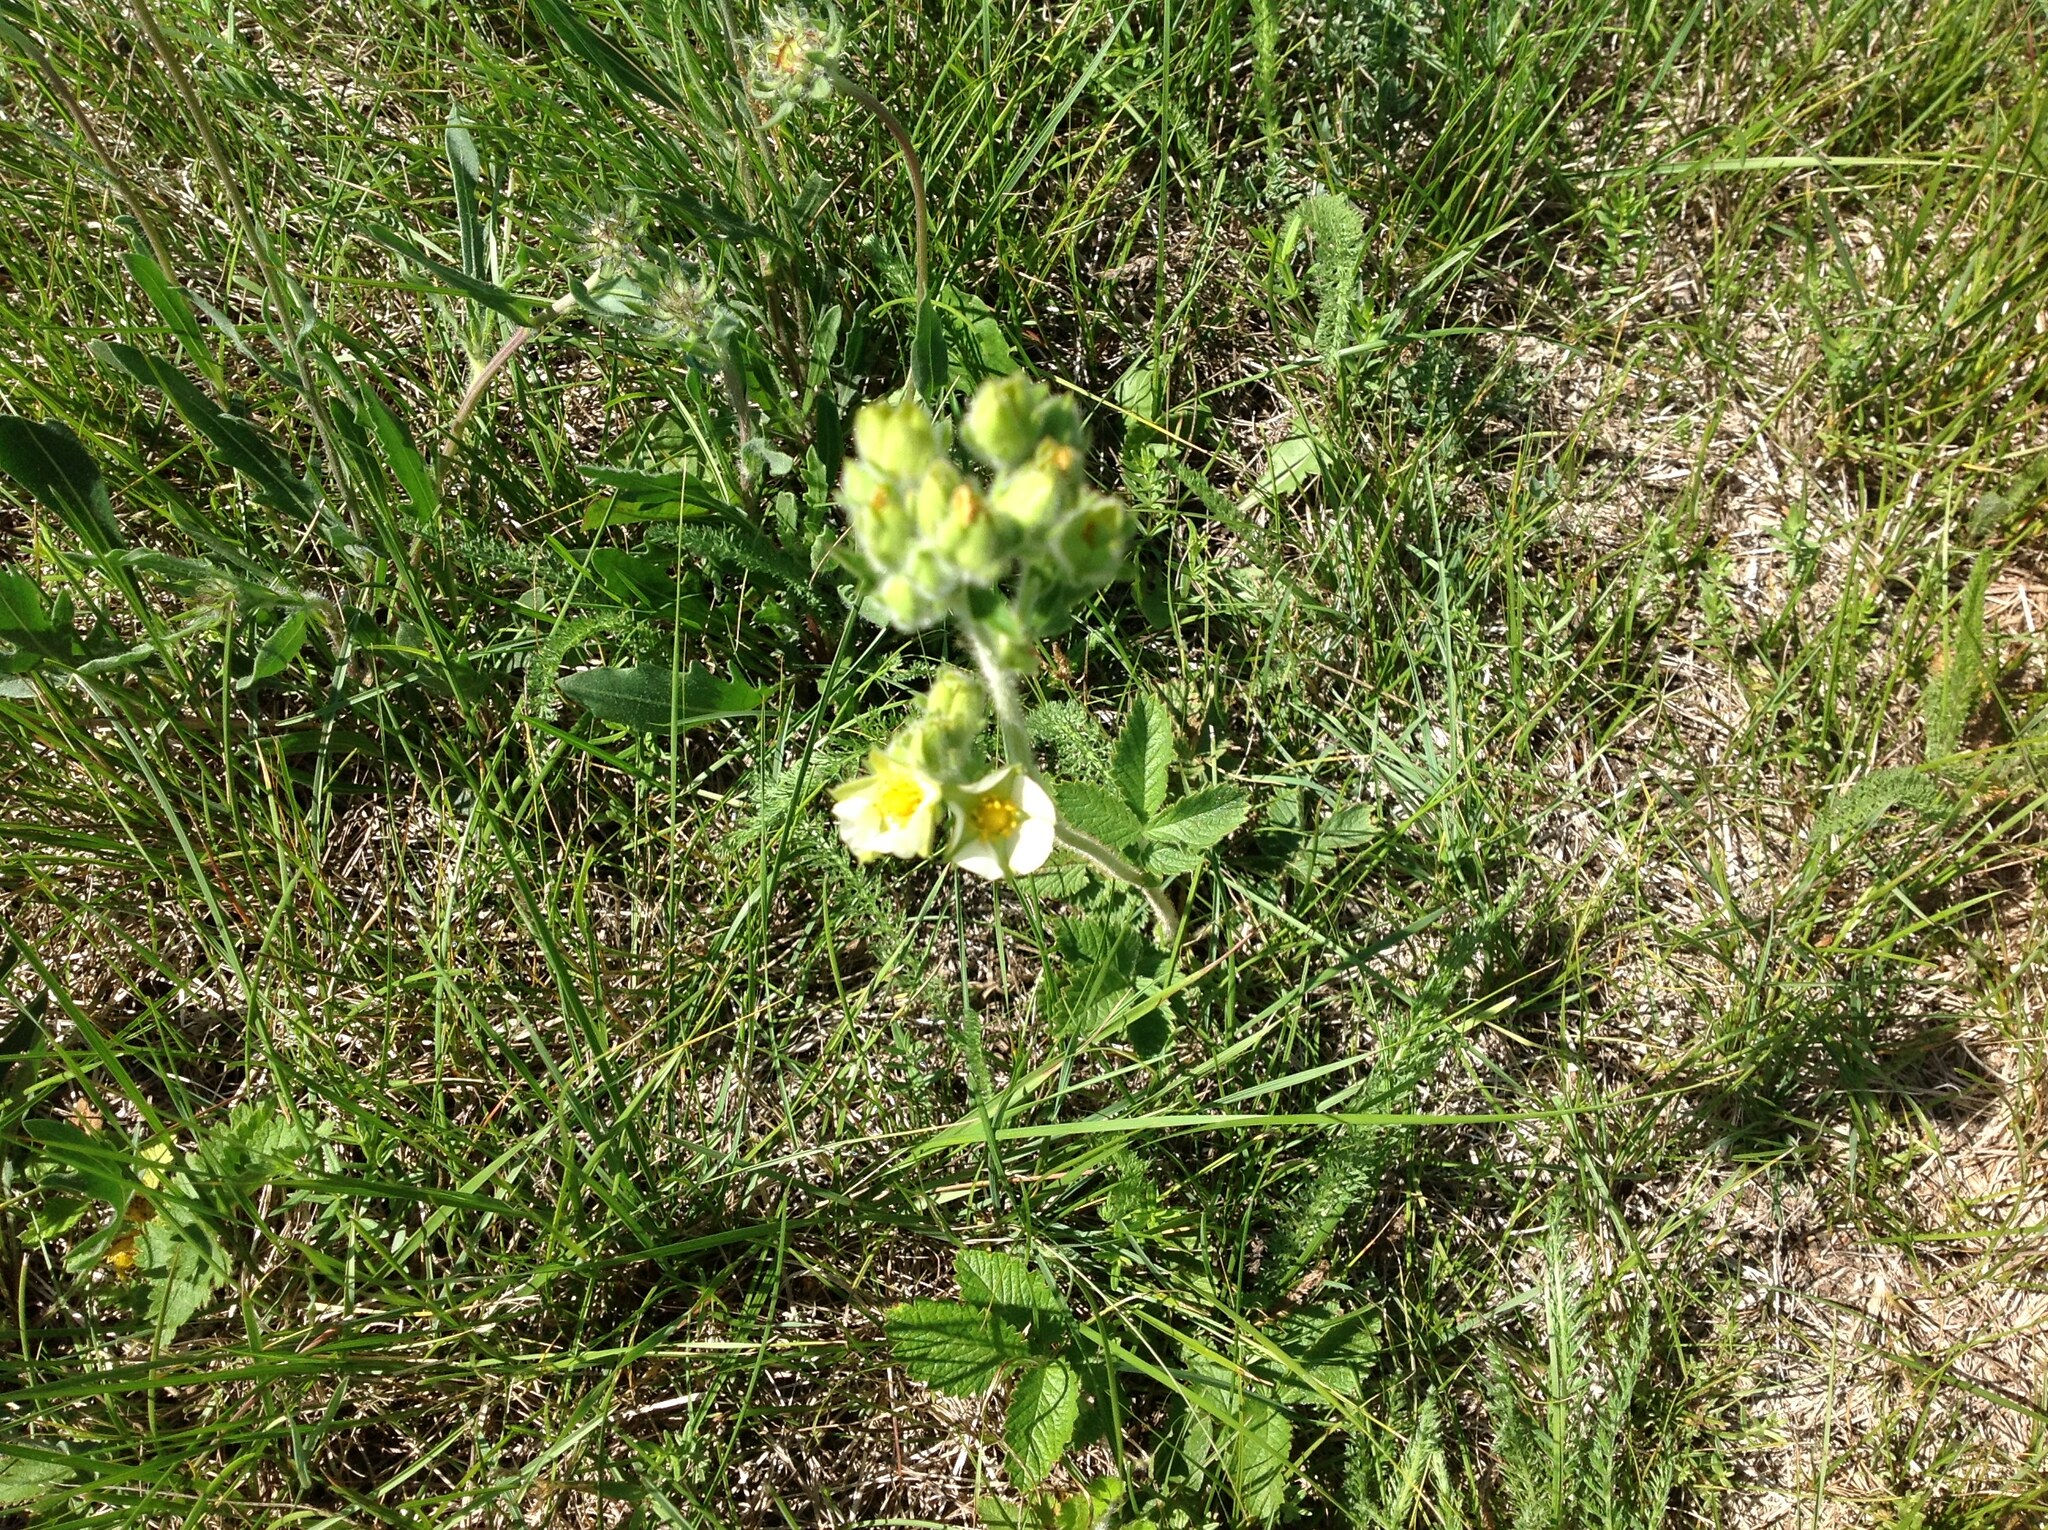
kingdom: Plantae
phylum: Tracheophyta
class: Magnoliopsida
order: Rosales
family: Rosaceae
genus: Drymocallis
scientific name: Drymocallis arguta
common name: Tall cinquefoil
